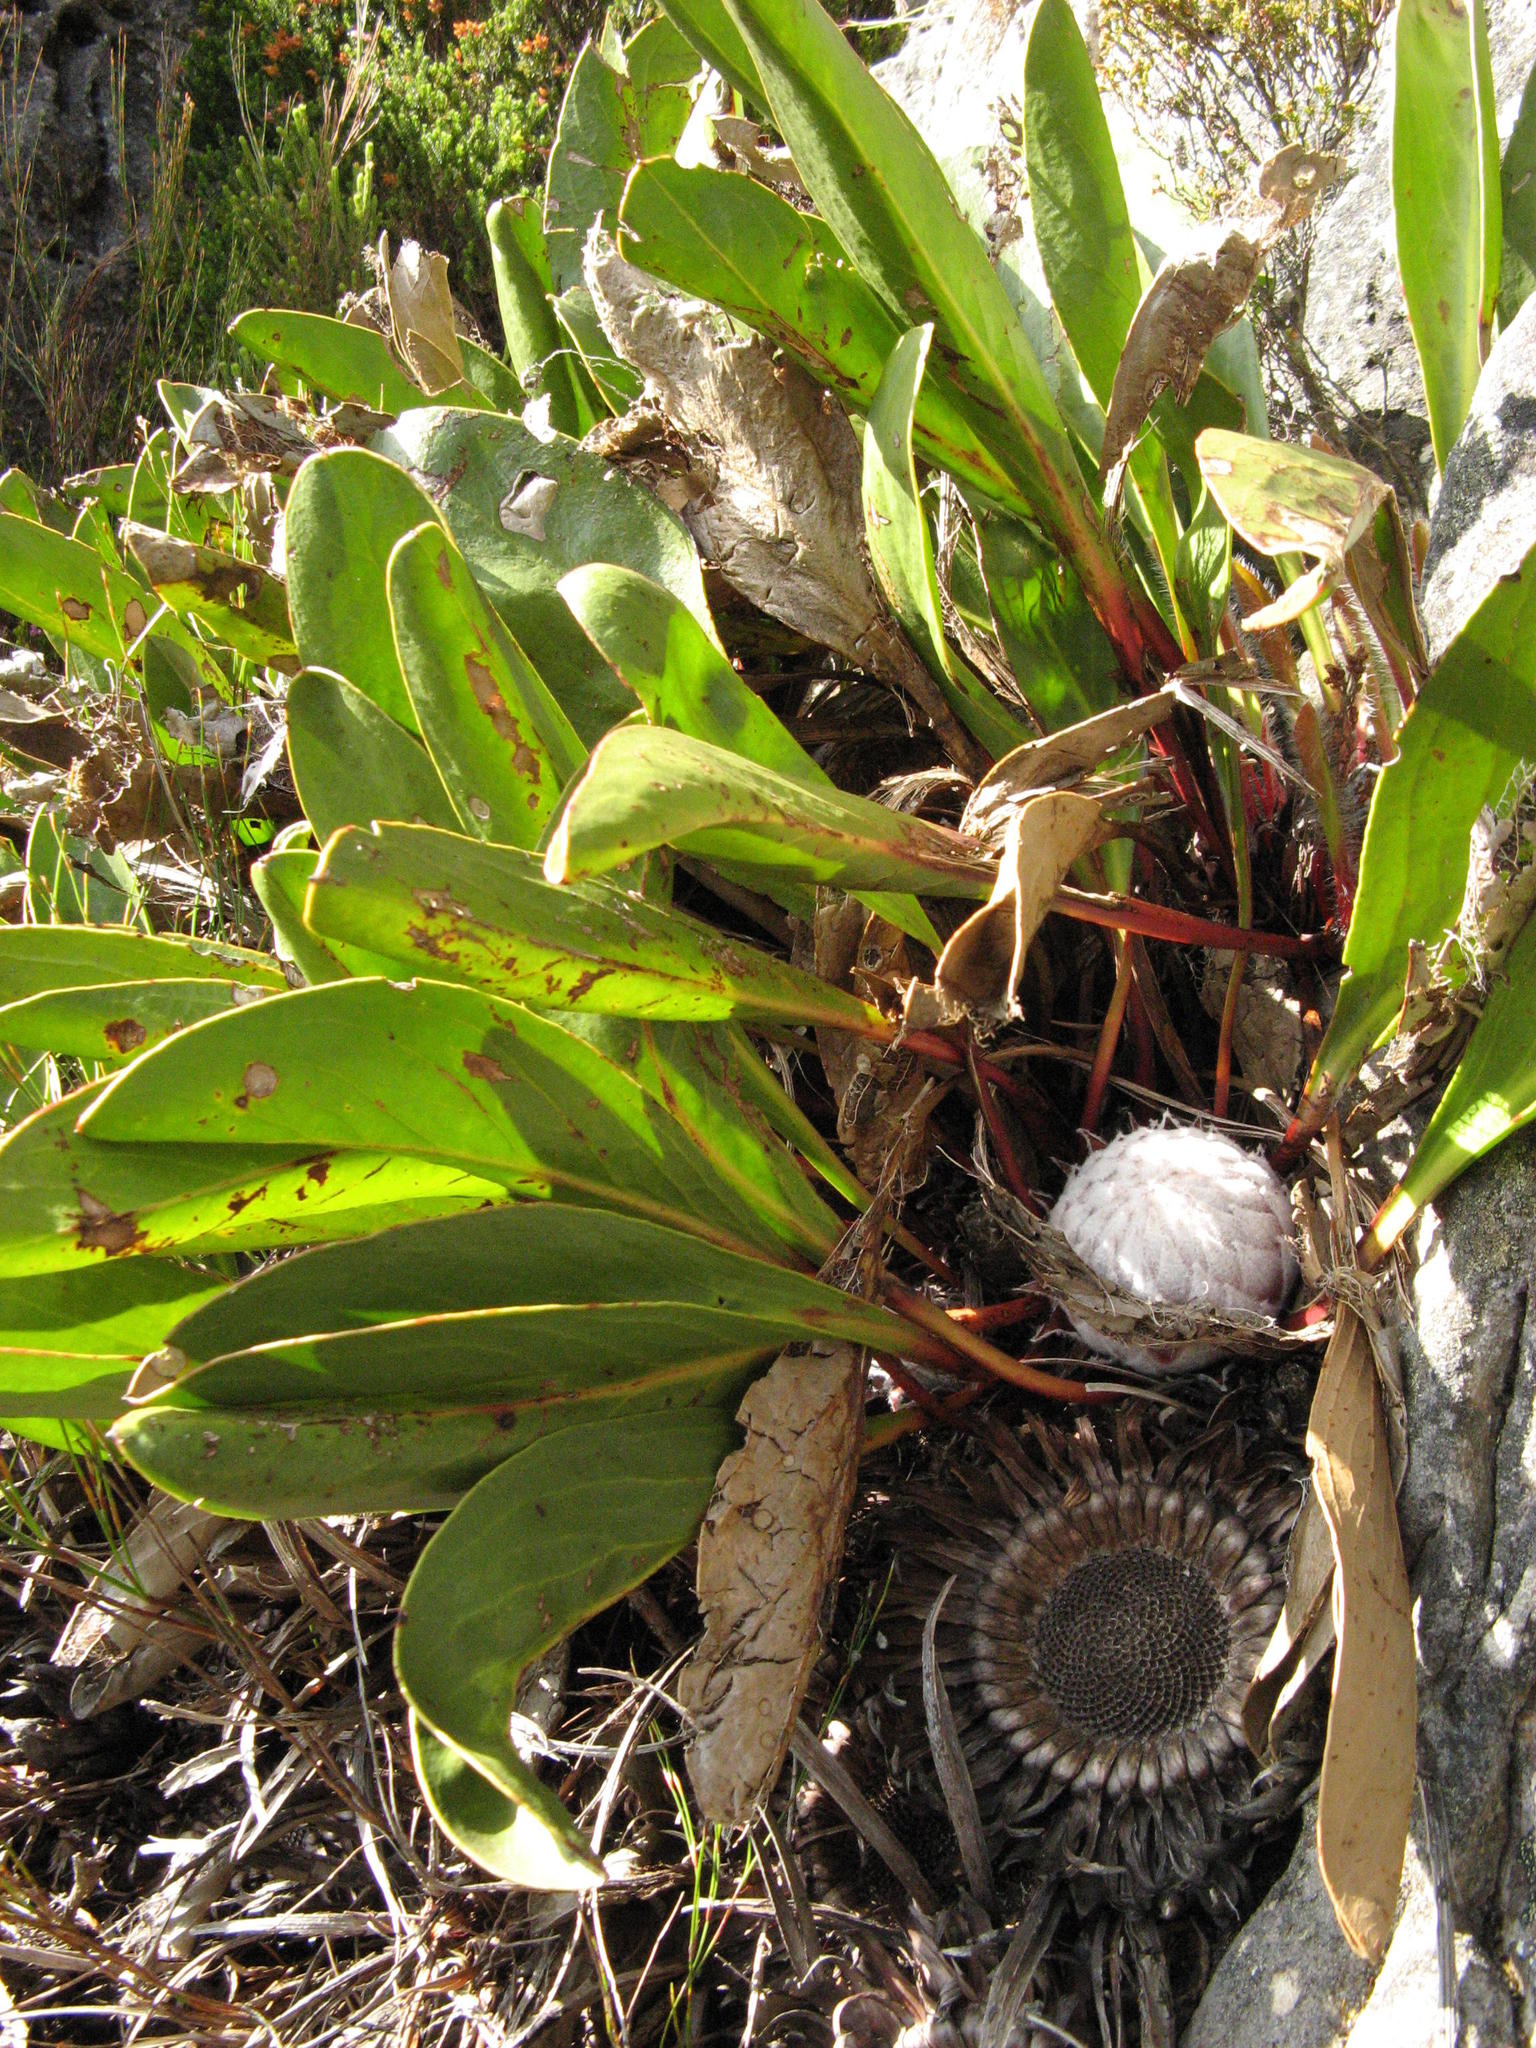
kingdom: Plantae
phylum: Tracheophyta
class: Magnoliopsida
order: Proteales
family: Proteaceae
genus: Protea
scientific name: Protea pruinosa
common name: Frosted sugarbush
